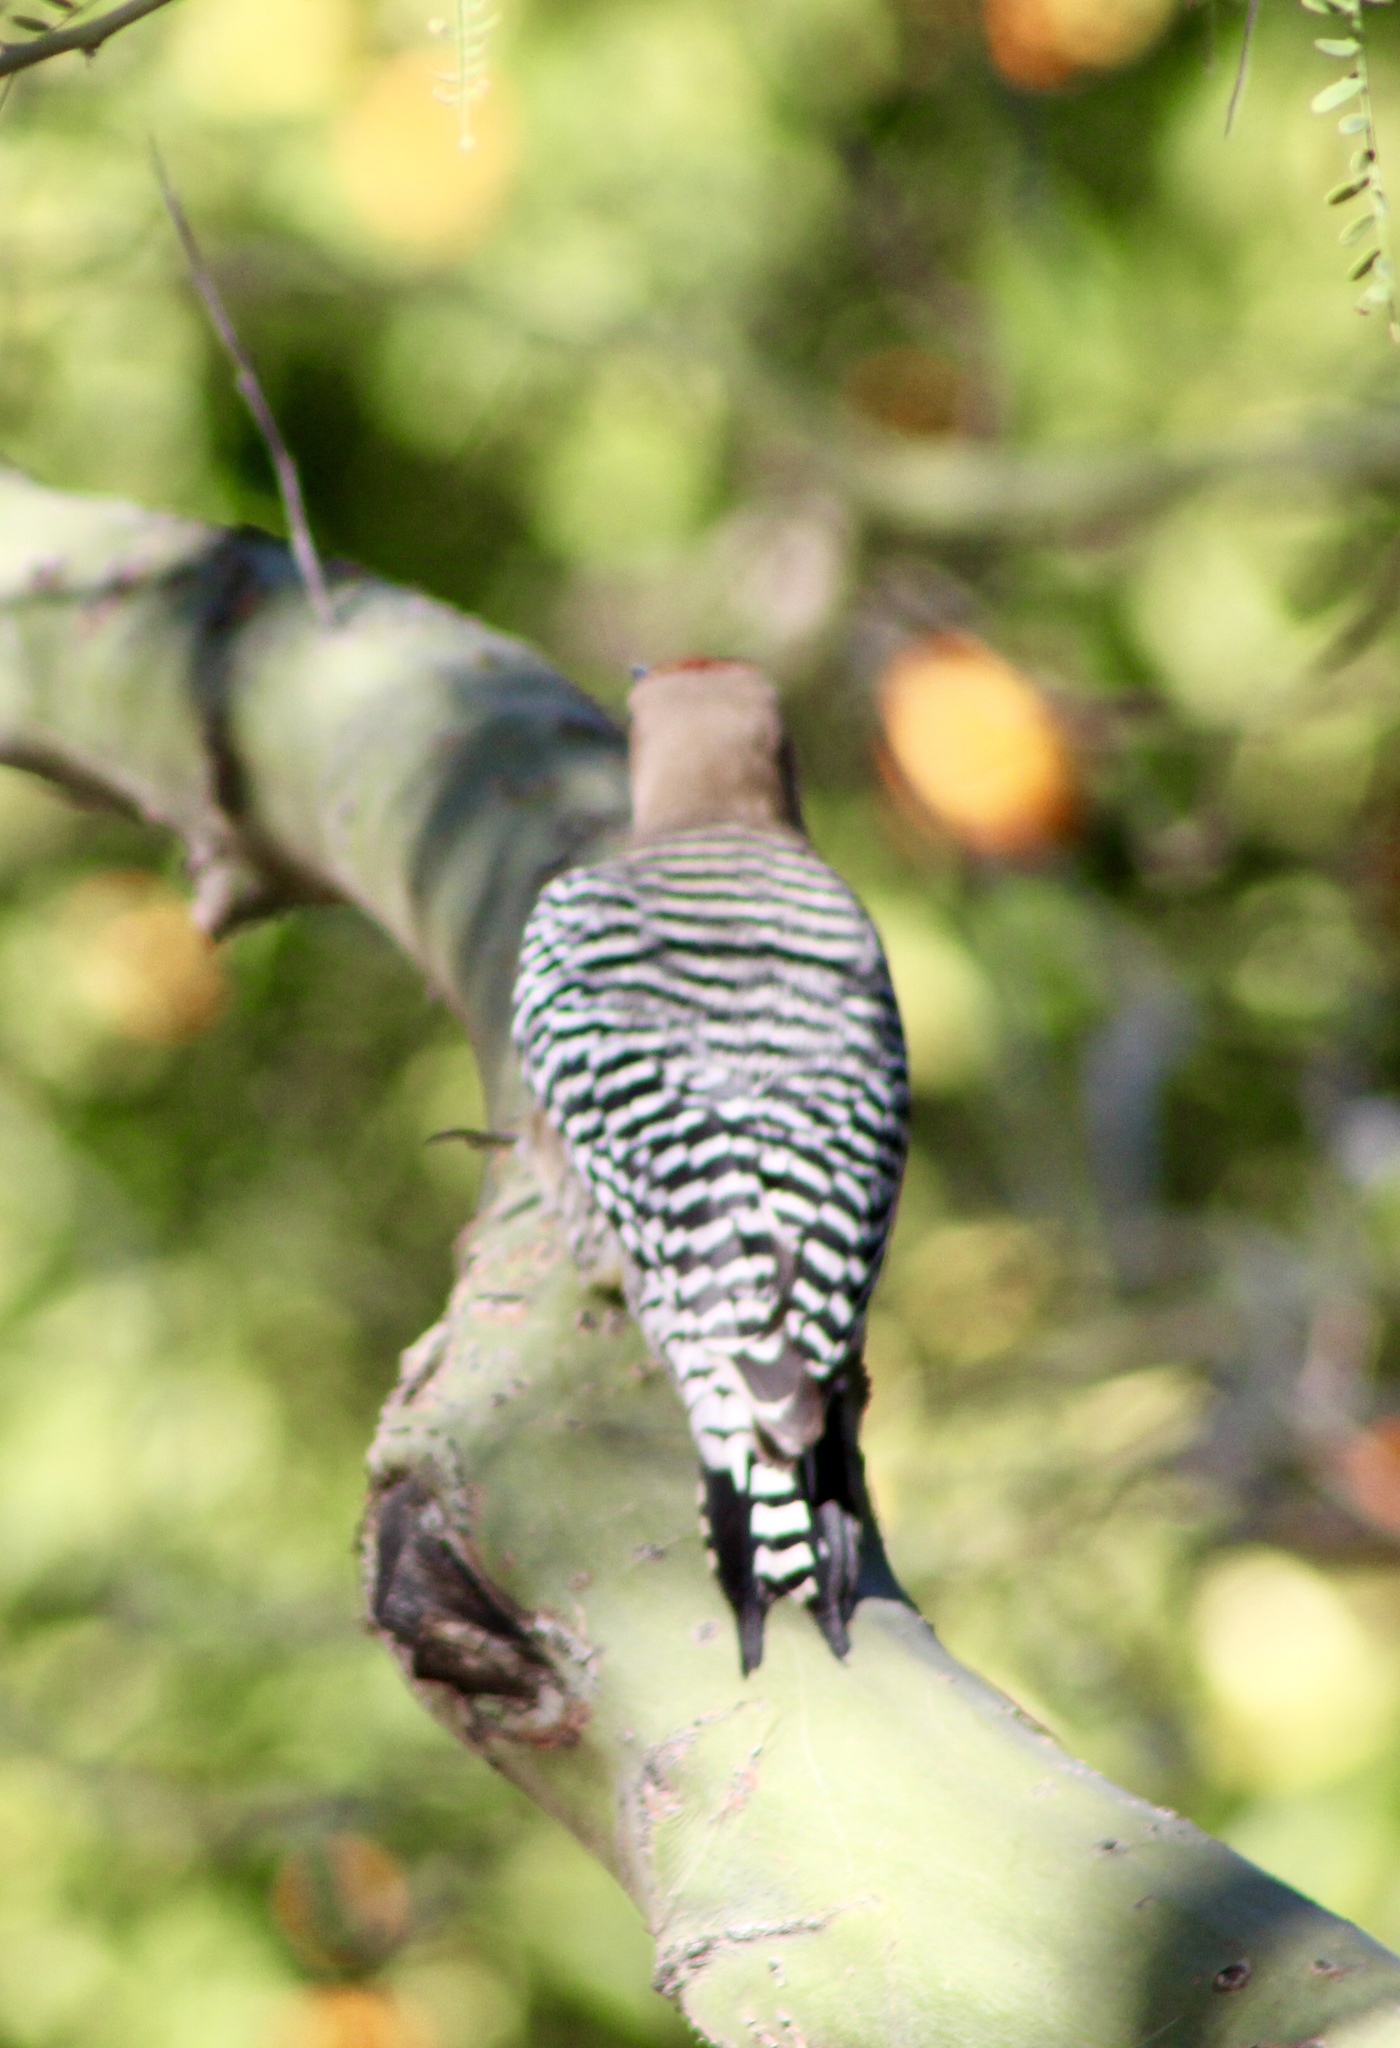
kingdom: Animalia
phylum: Chordata
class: Aves
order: Piciformes
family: Picidae
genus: Melanerpes
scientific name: Melanerpes uropygialis
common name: Gila woodpecker
